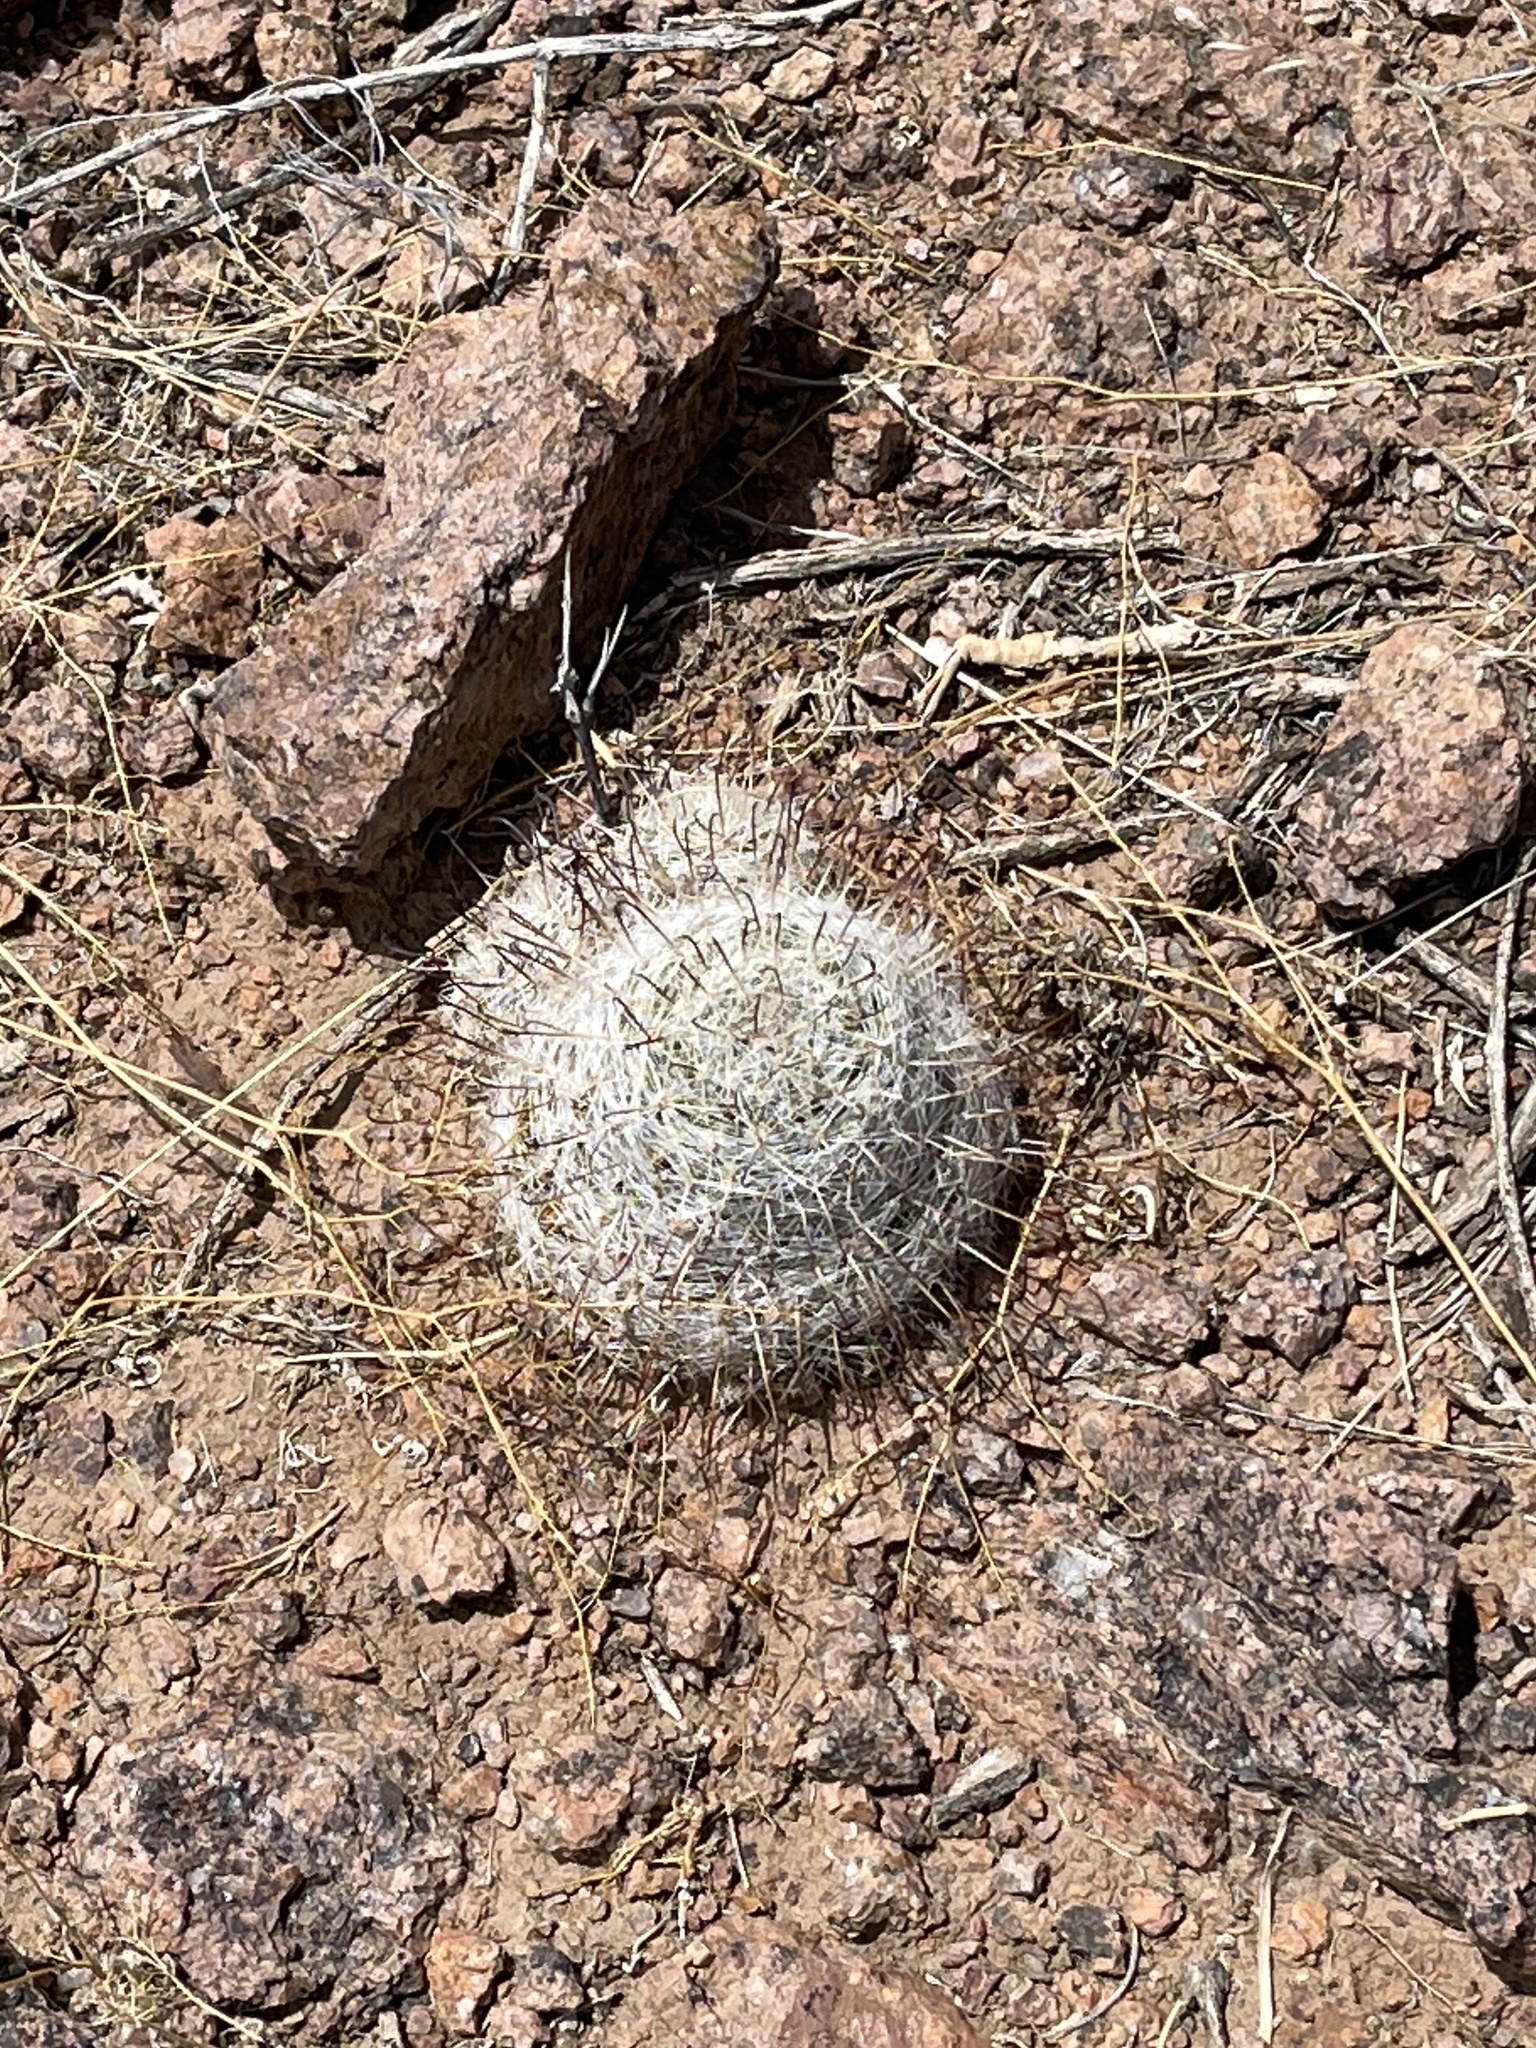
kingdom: Plantae
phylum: Tracheophyta
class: Magnoliopsida
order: Caryophyllales
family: Cactaceae
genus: Cochemiea
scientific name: Cochemiea grahamii
